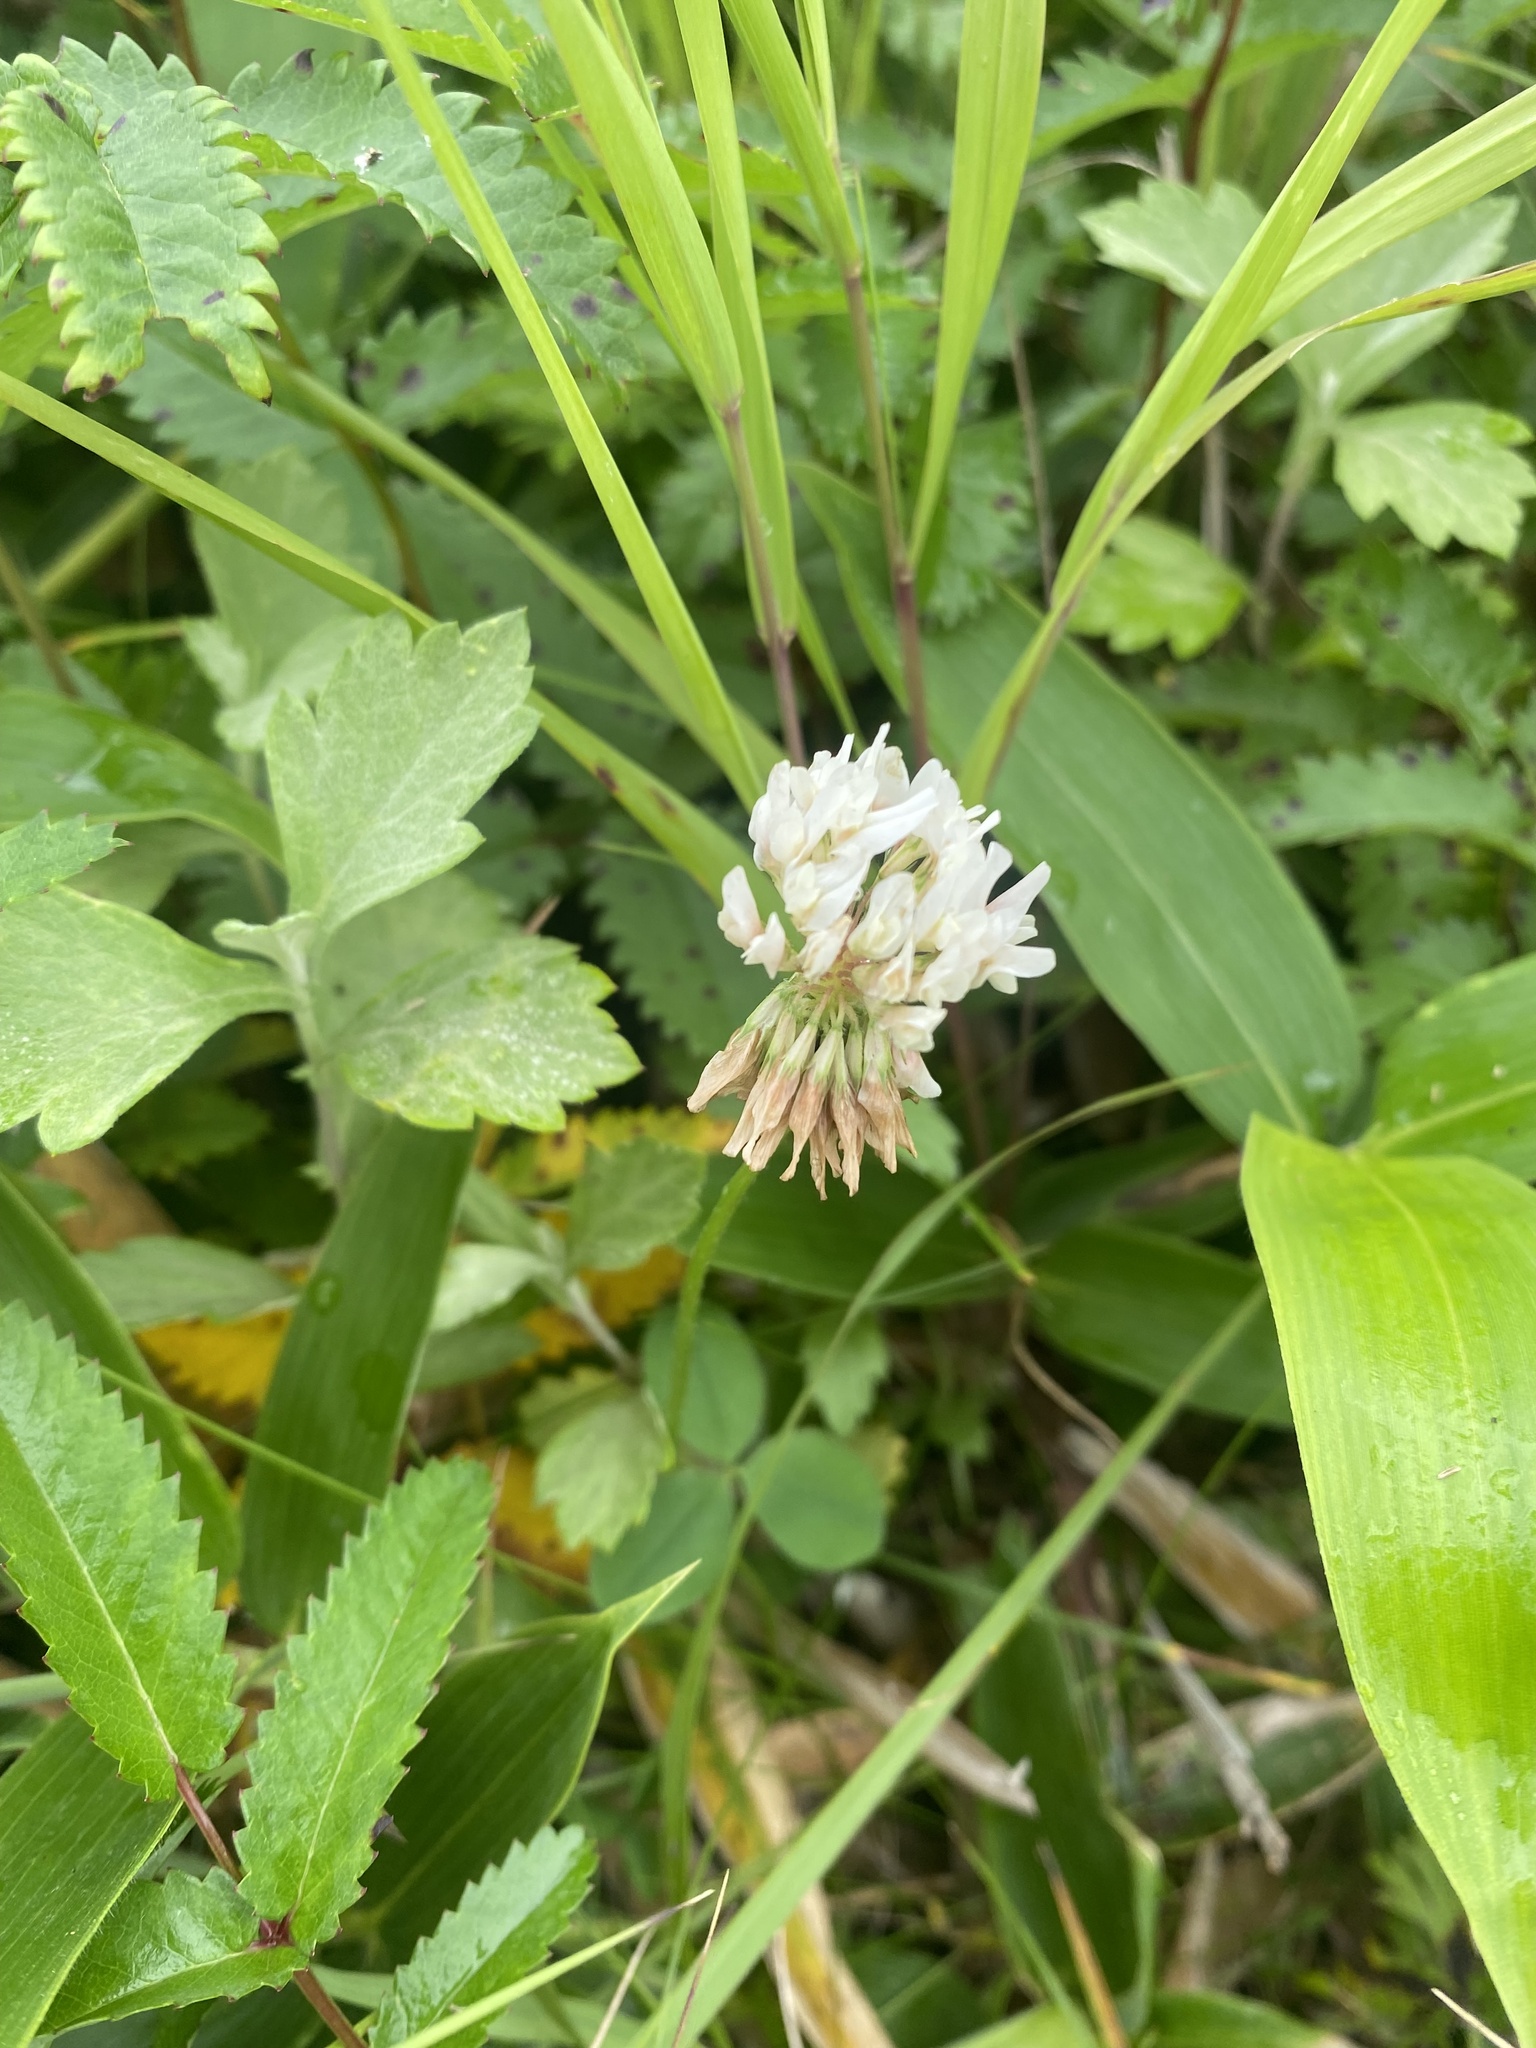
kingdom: Plantae
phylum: Tracheophyta
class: Magnoliopsida
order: Fabales
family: Fabaceae
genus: Trifolium
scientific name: Trifolium repens
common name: White clover
